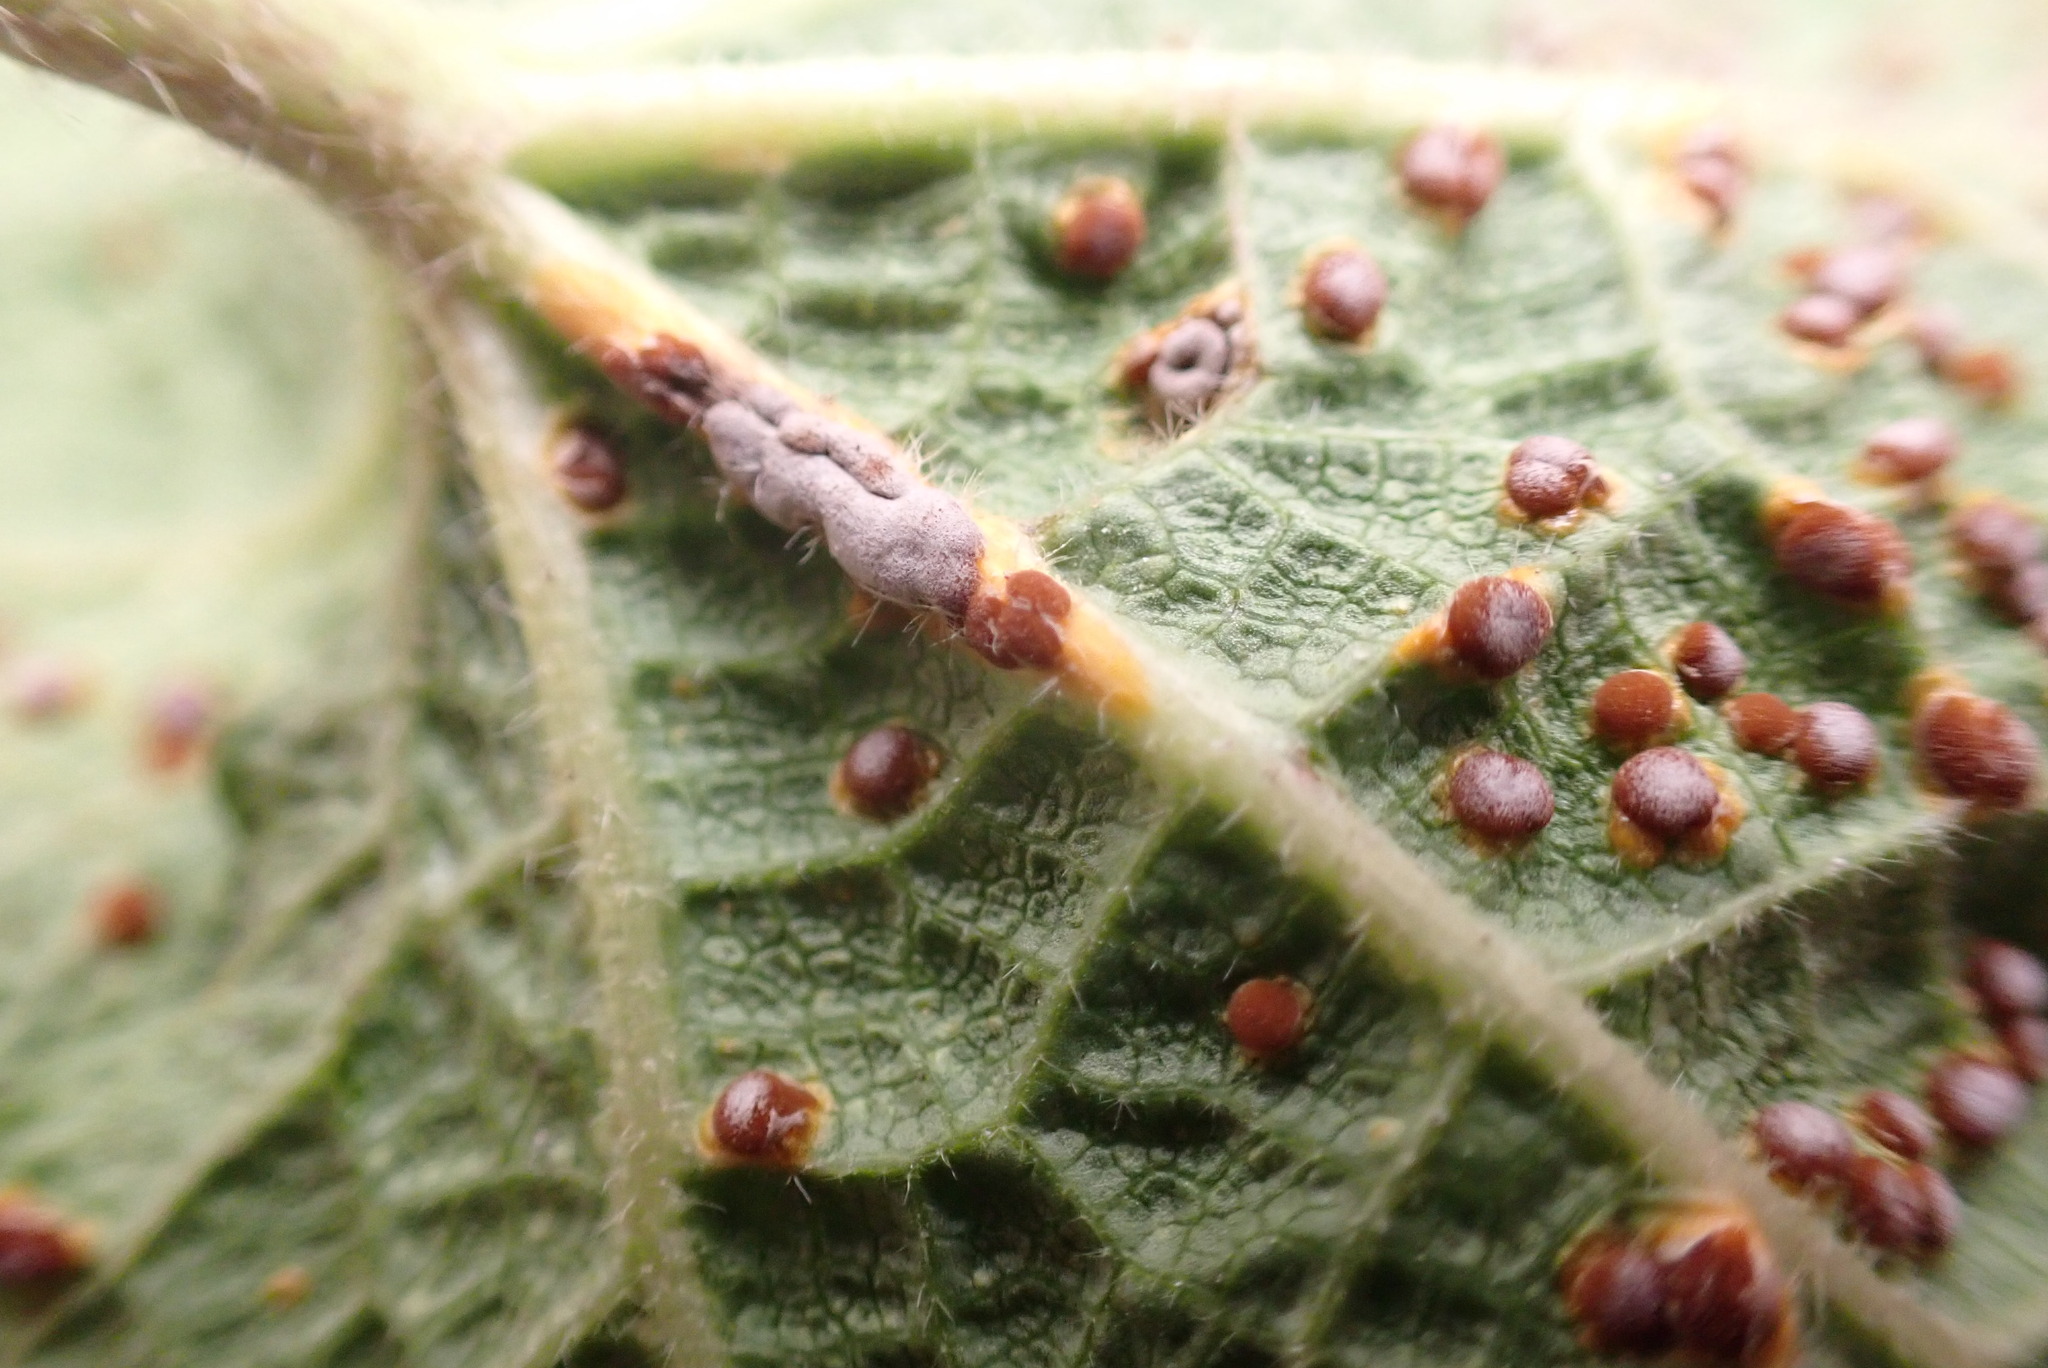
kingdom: Fungi
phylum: Basidiomycota
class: Pucciniomycetes
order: Pucciniales
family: Pucciniaceae
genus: Puccinia
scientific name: Puccinia malvacearum
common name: Hollyhock rust
